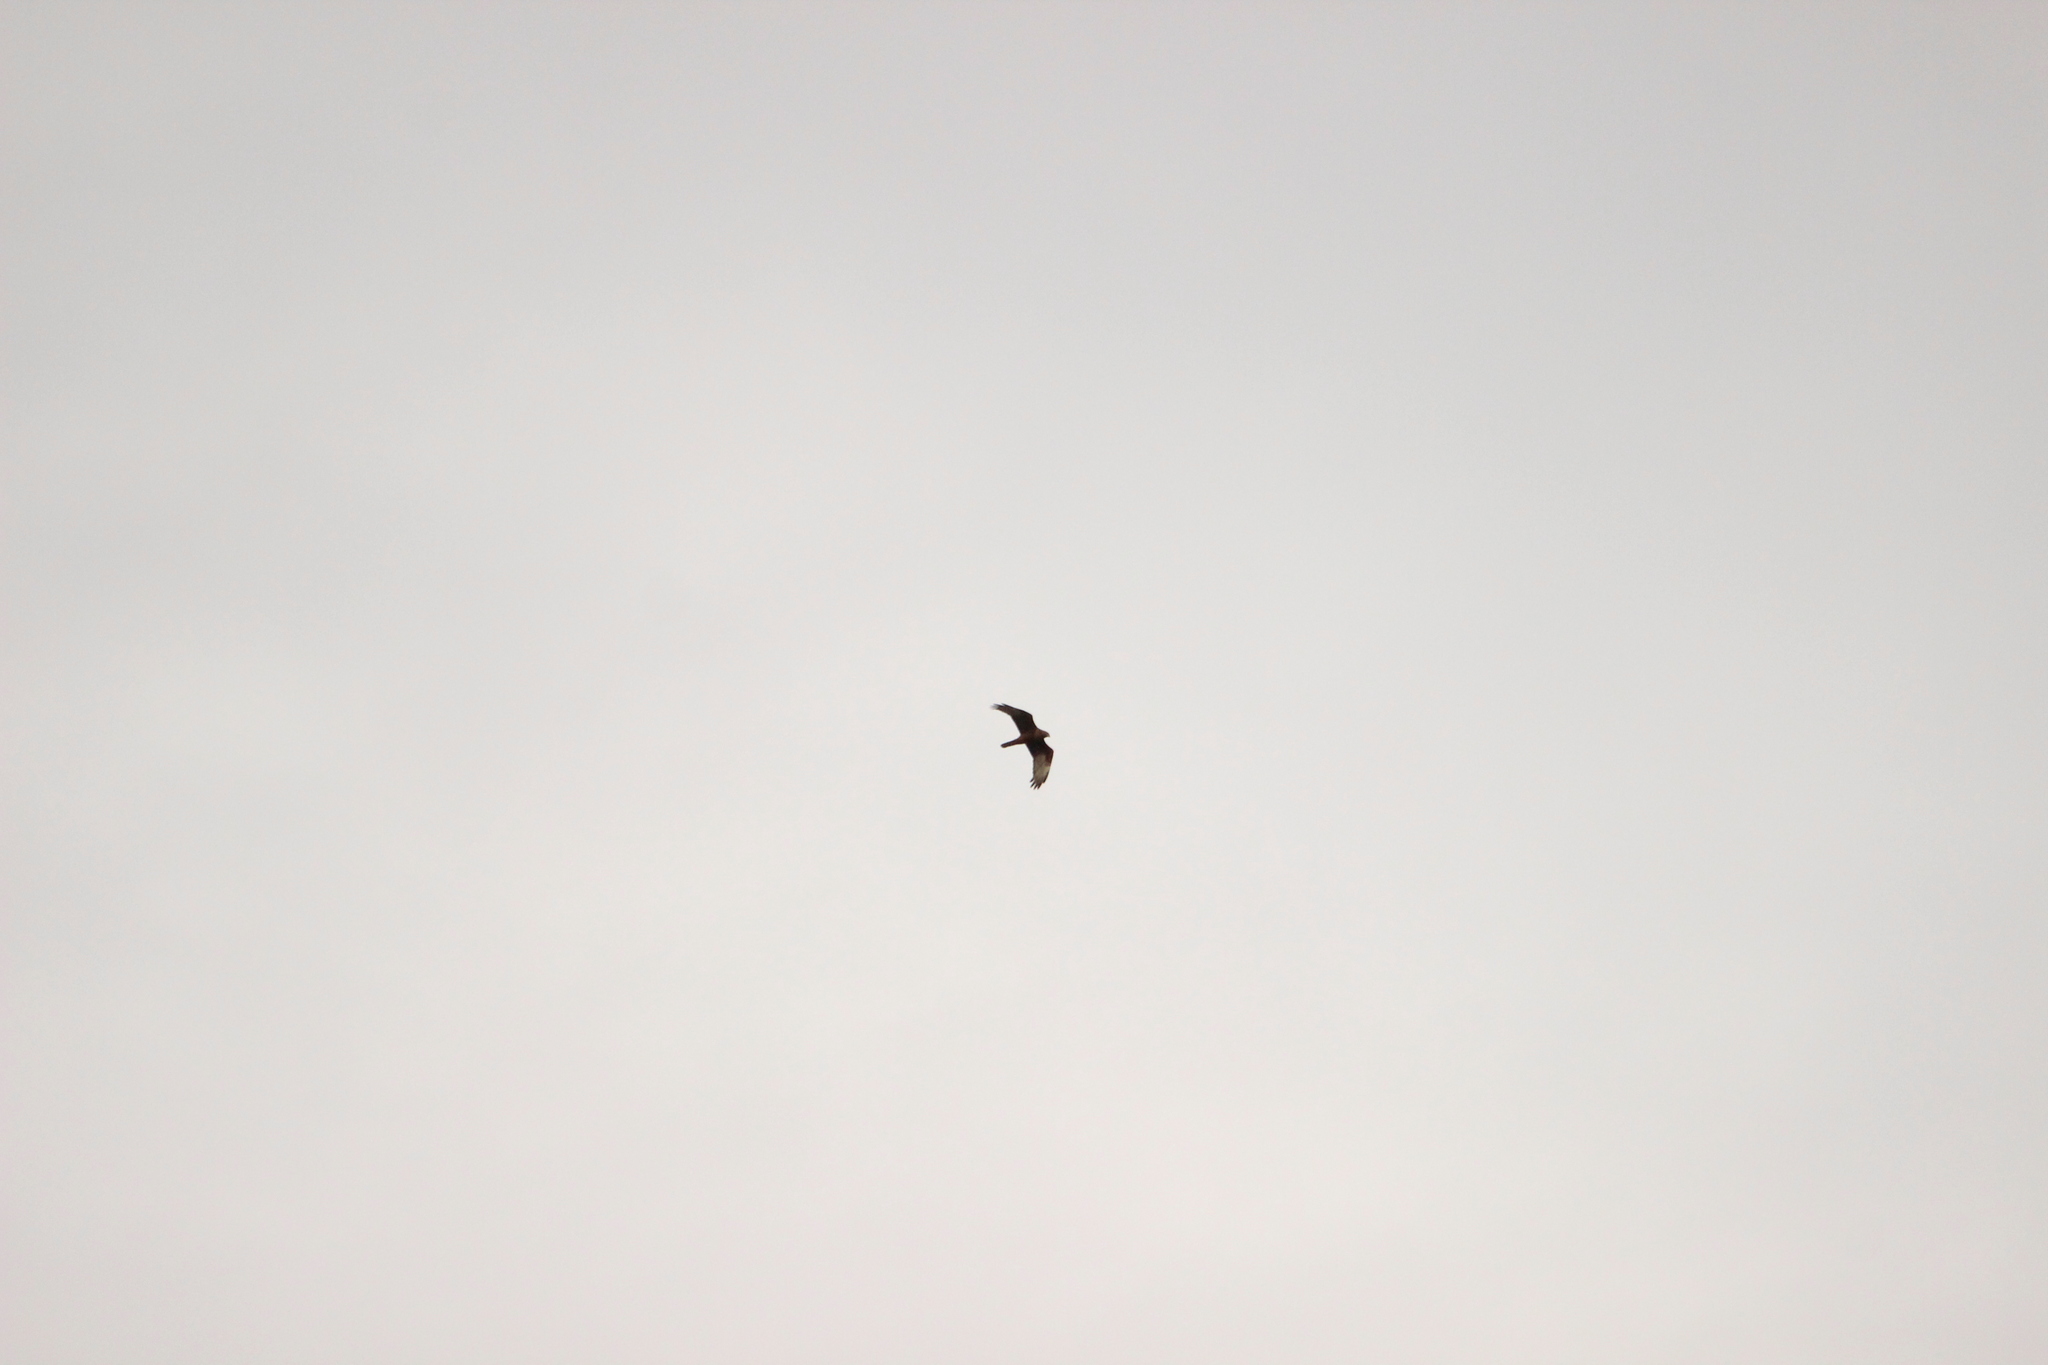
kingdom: Animalia
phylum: Chordata
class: Aves
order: Accipitriformes
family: Accipitridae
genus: Circus
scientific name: Circus approximans
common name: Swamp harrier
